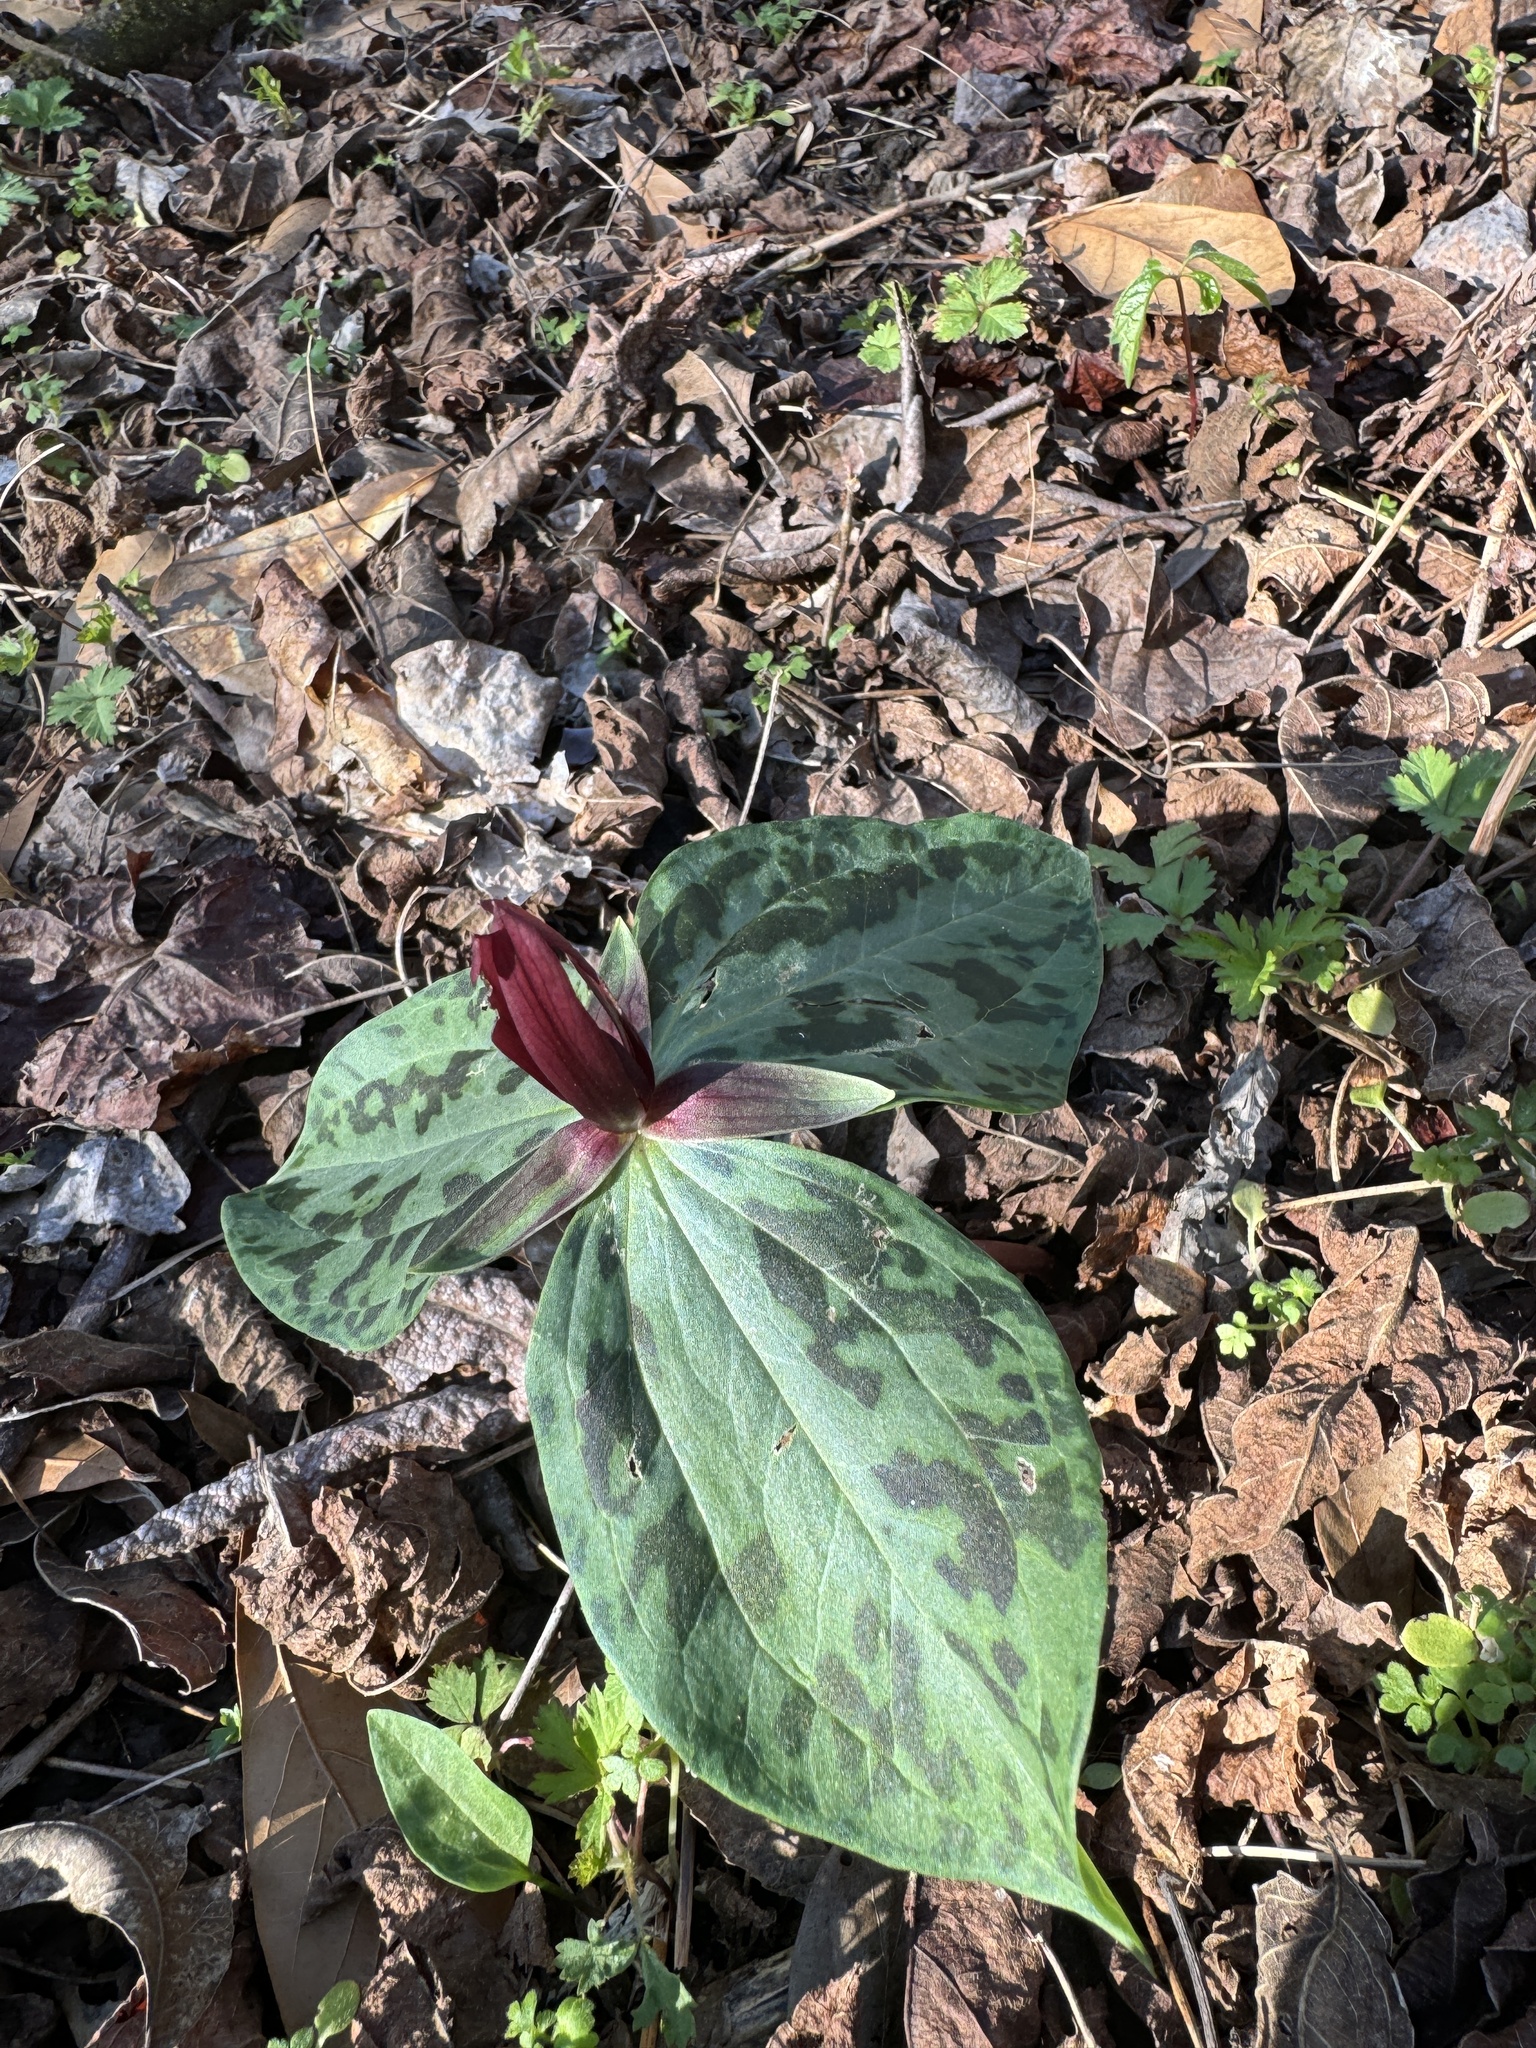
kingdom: Plantae
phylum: Tracheophyta
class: Liliopsida
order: Liliales
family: Melanthiaceae
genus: Trillium
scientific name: Trillium foetidissimum
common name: Mississippi river trillium
